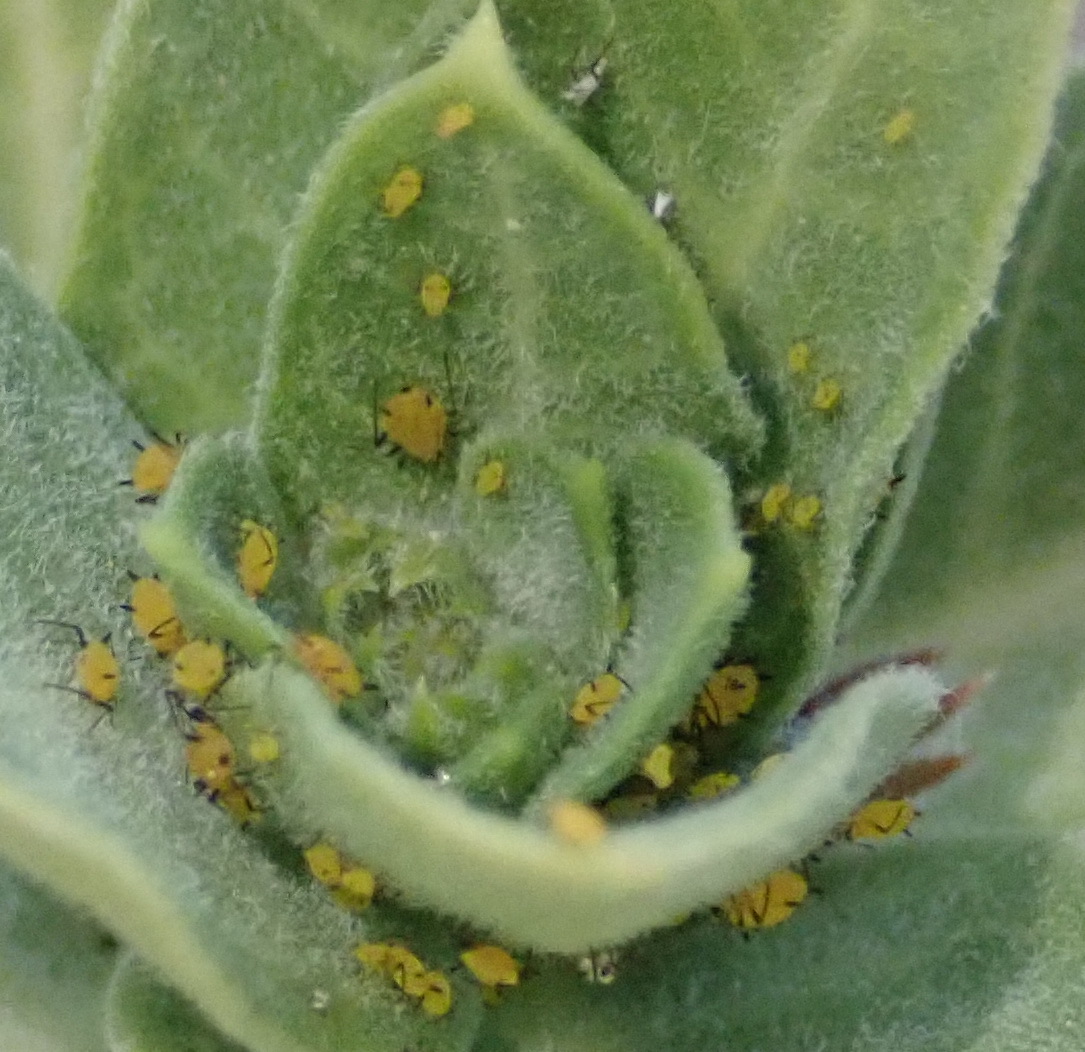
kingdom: Animalia
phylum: Arthropoda
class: Insecta
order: Hemiptera
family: Aphididae
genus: Aphis
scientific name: Aphis nerii
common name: Oleander aphid
